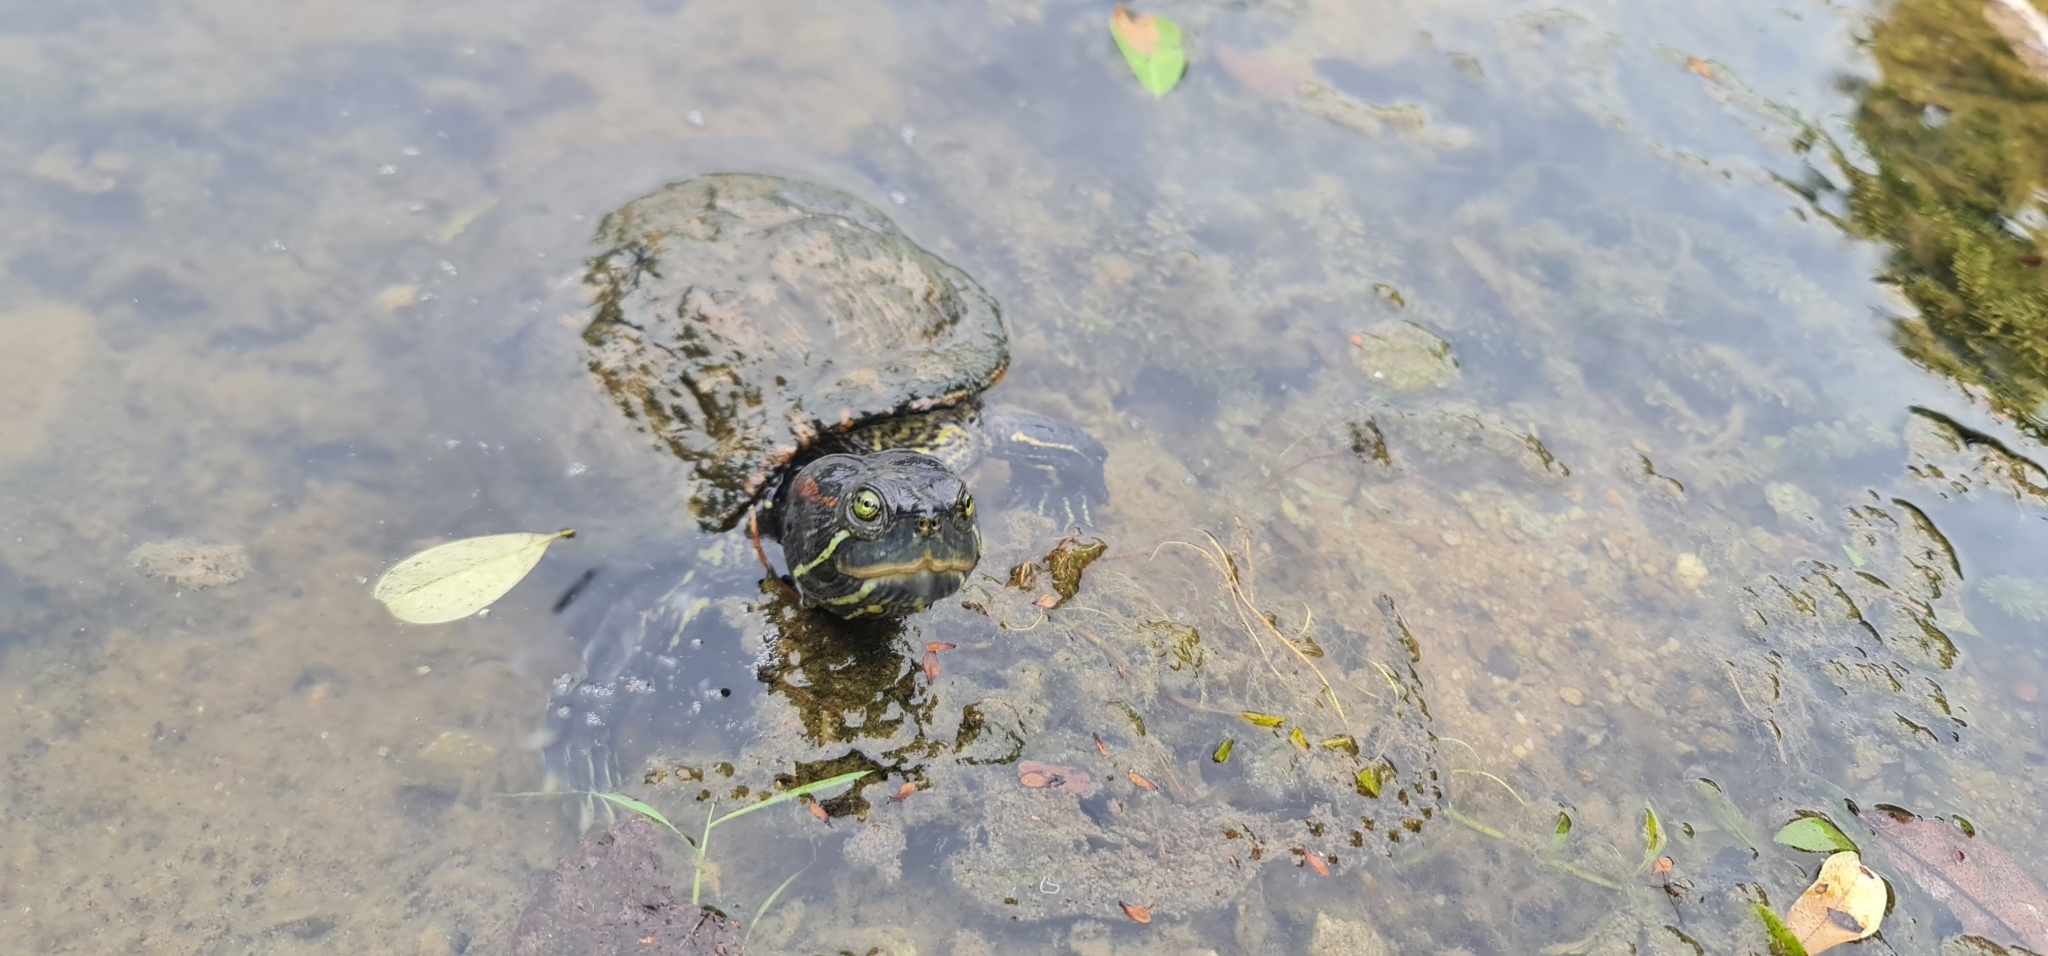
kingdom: Animalia
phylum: Chordata
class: Testudines
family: Emydidae
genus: Trachemys
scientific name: Trachemys scripta
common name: Slider
